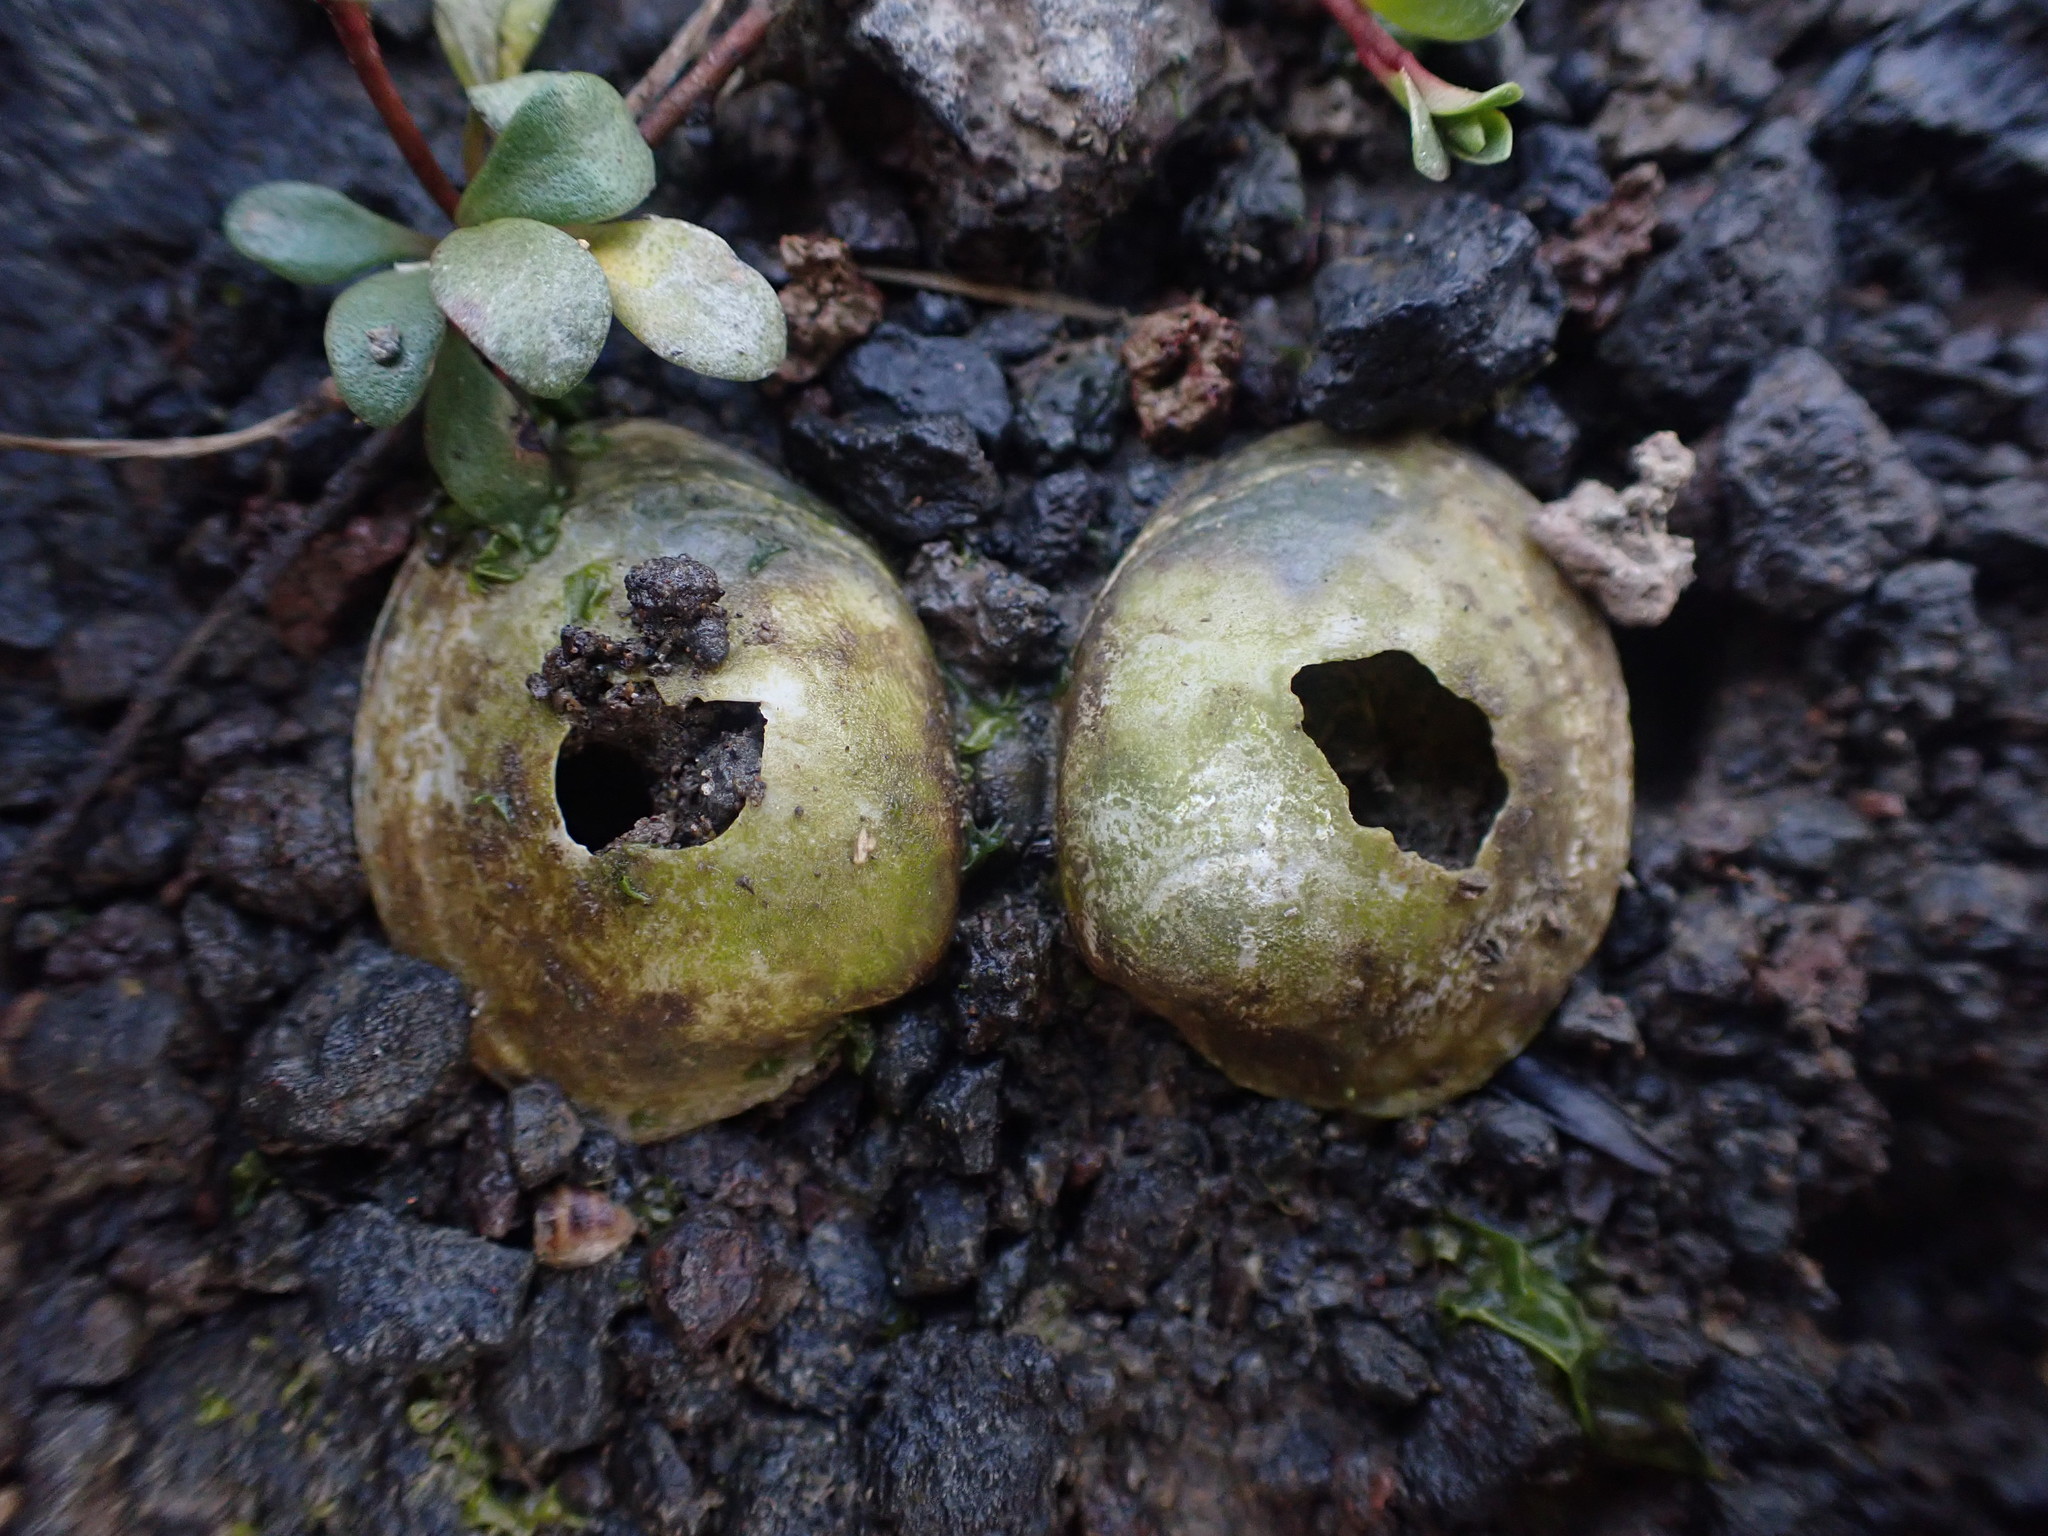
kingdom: Animalia
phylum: Mollusca
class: Bivalvia
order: Venerida
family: Veneridae
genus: Austrovenus
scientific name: Austrovenus stutchburyi
